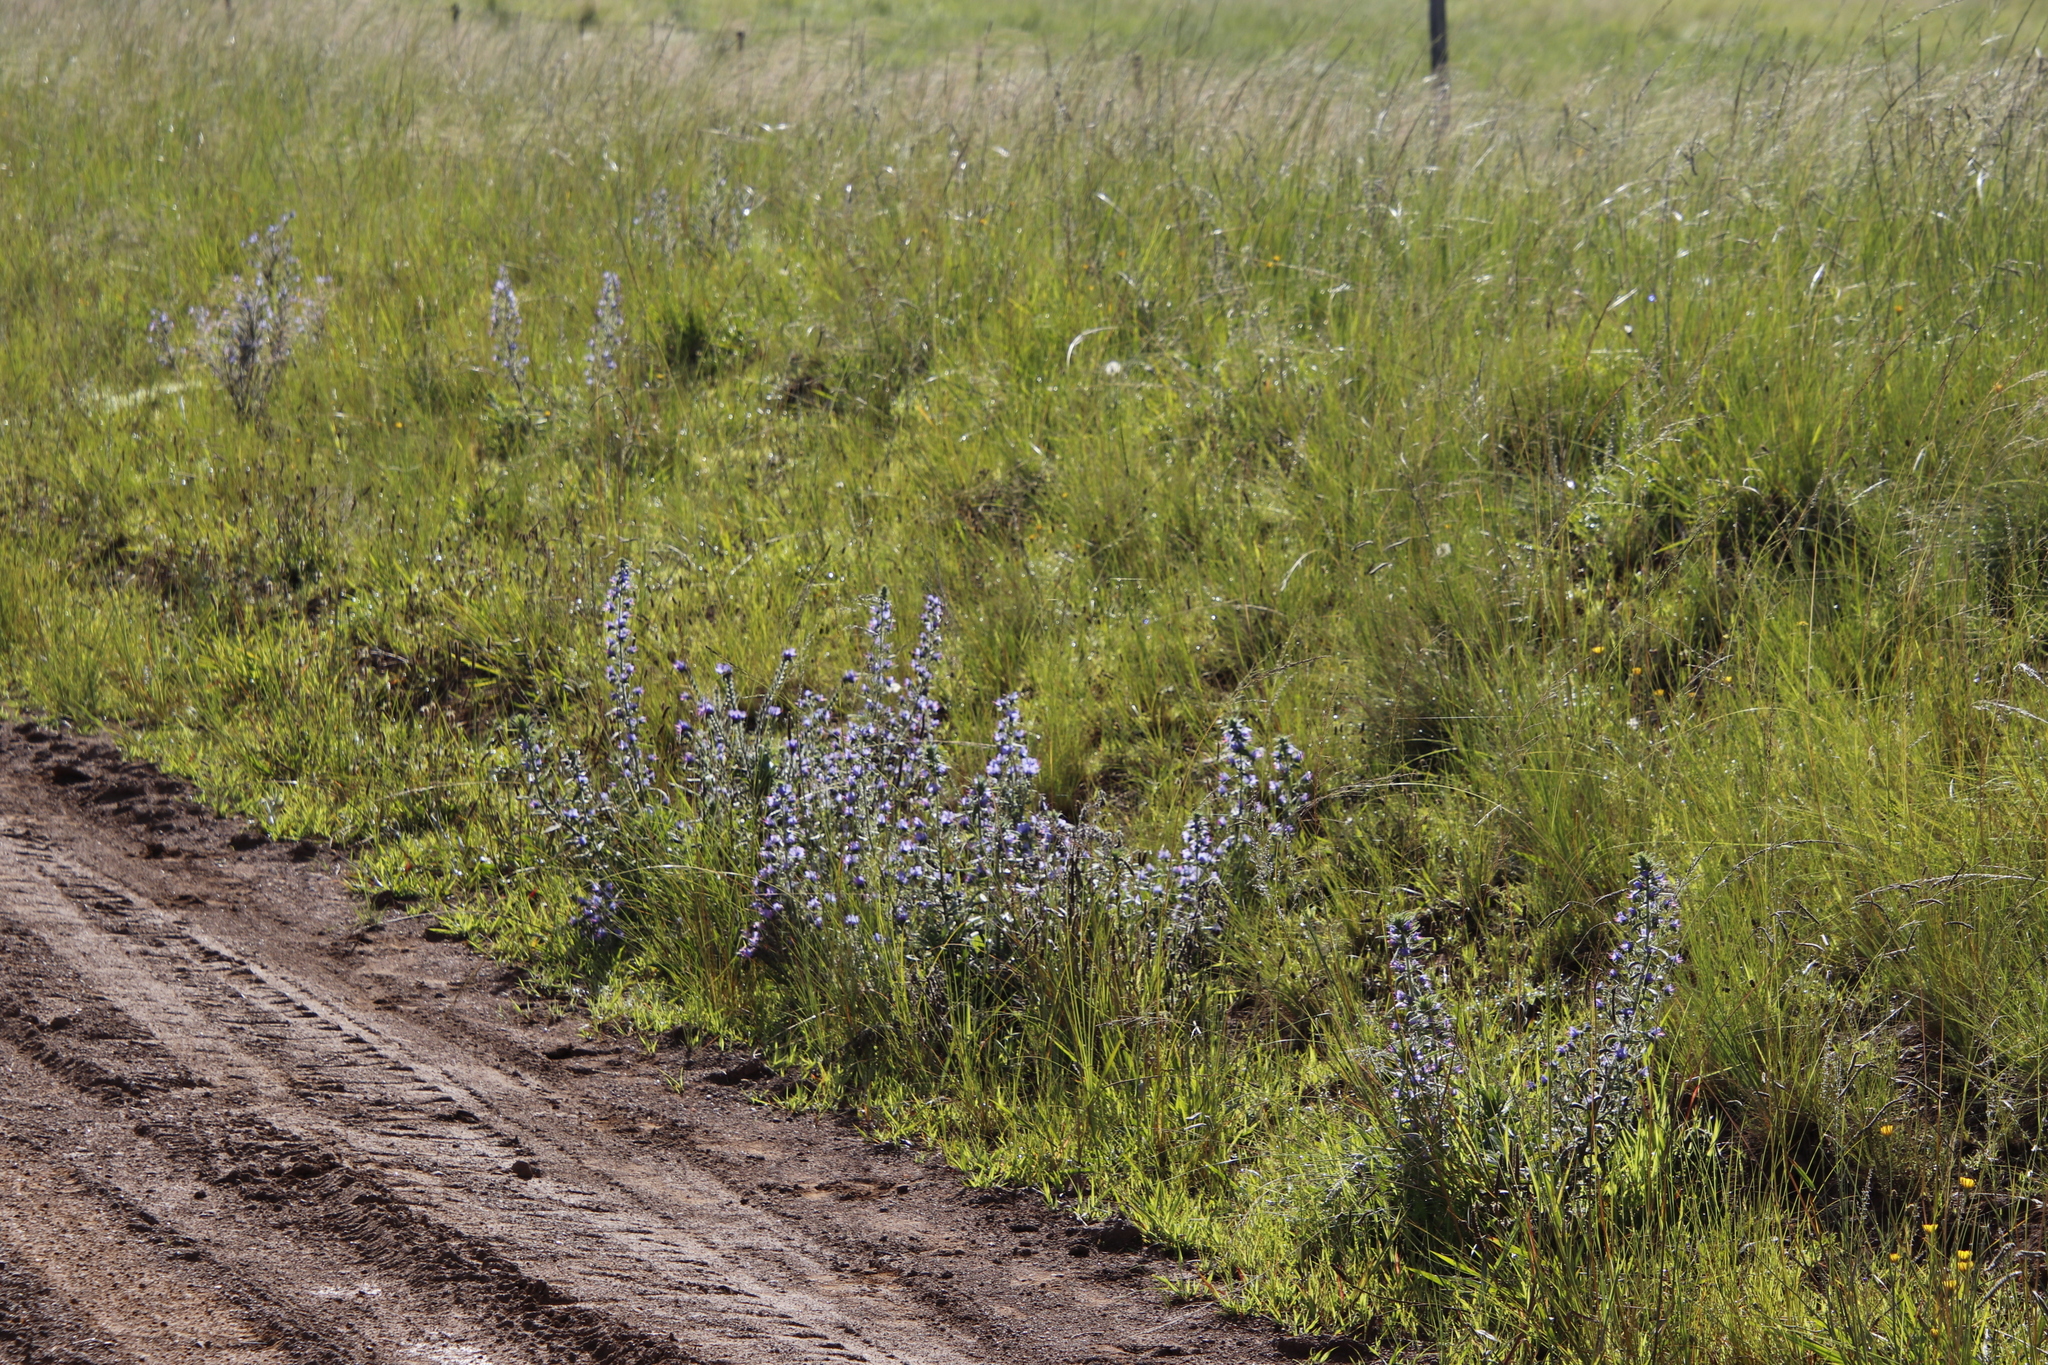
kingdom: Plantae
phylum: Tracheophyta
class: Magnoliopsida
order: Boraginales
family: Boraginaceae
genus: Echium
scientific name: Echium vulgare
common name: Common viper's bugloss
